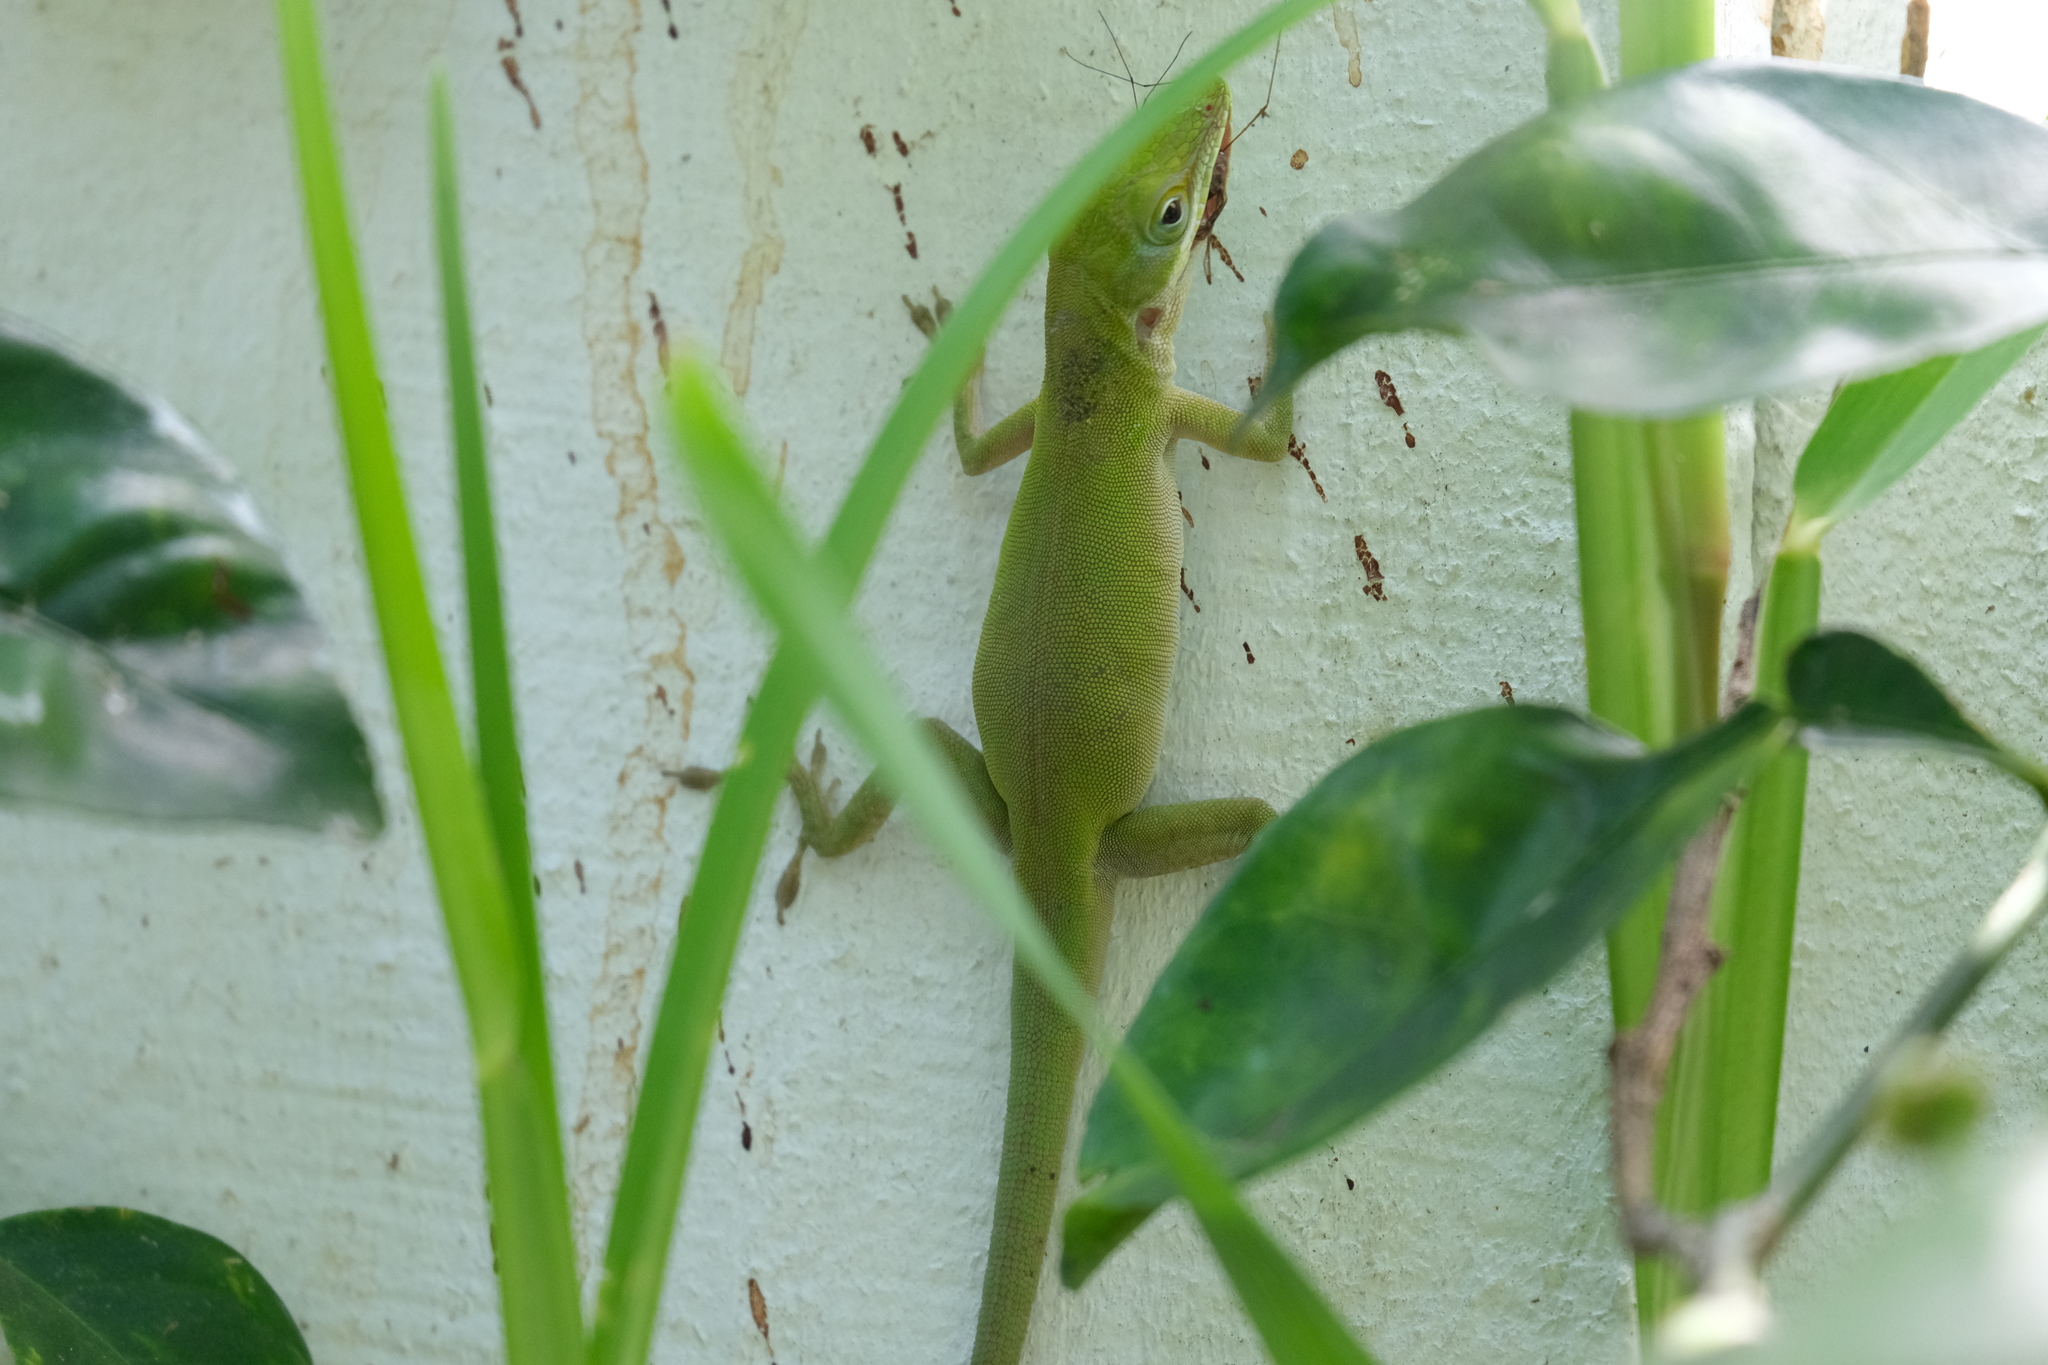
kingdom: Animalia
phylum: Chordata
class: Squamata
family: Dactyloidae
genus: Anolis
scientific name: Anolis allisoni
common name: Allison's anole
